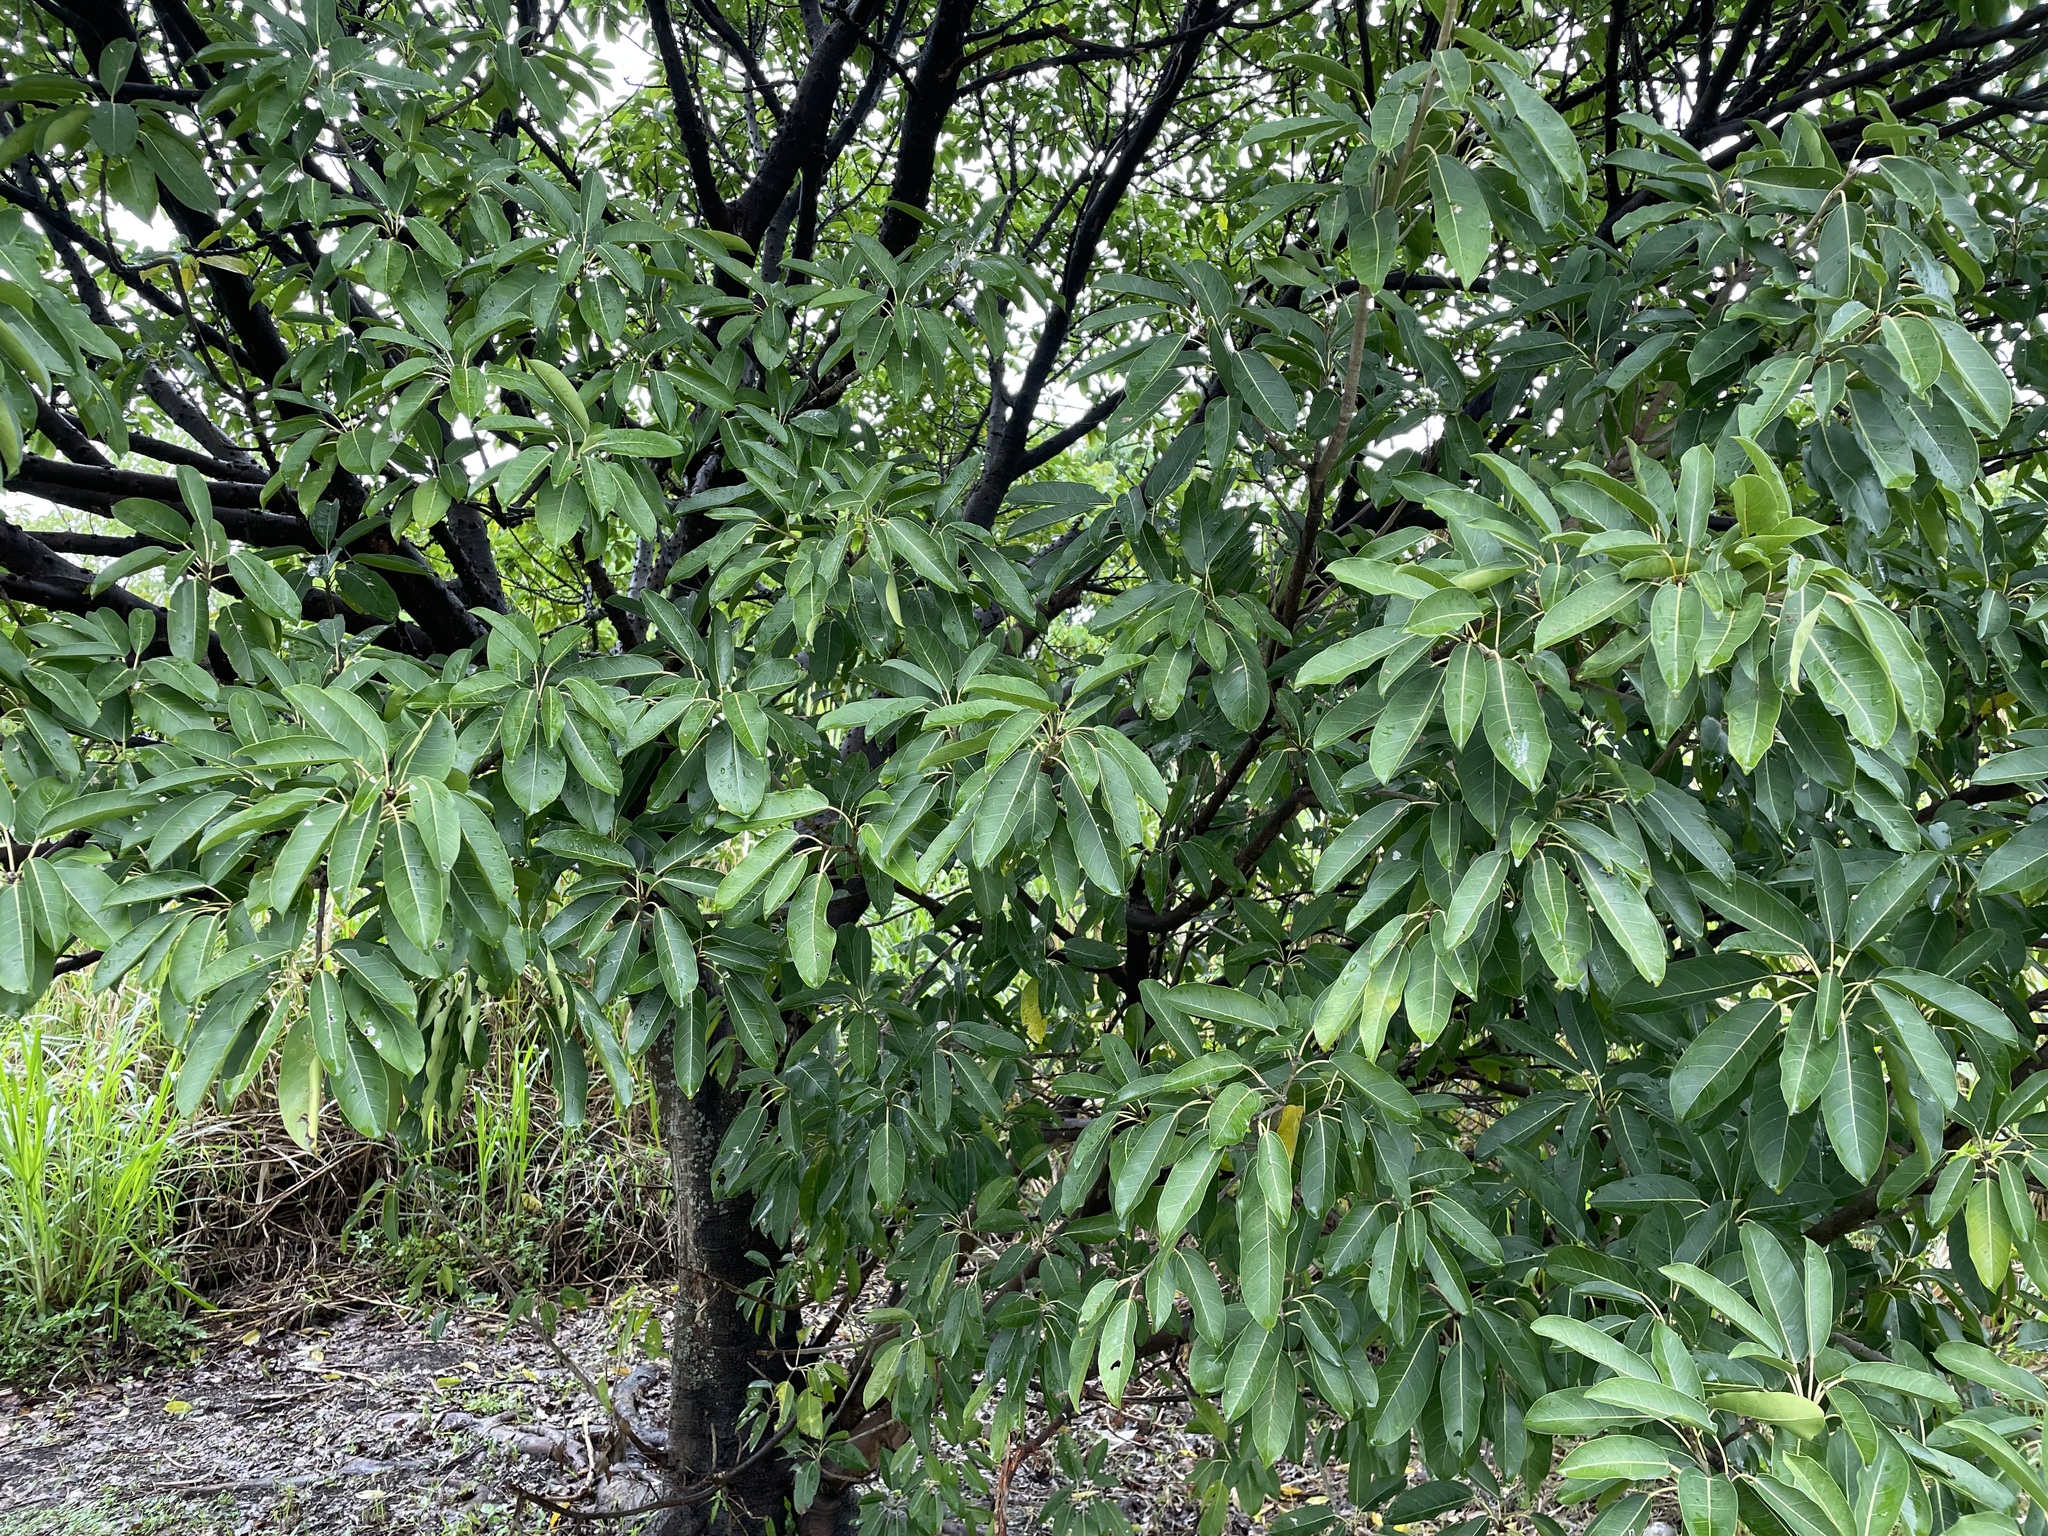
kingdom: Plantae
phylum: Tracheophyta
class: Magnoliopsida
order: Rosales
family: Moraceae
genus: Ficus
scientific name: Ficus subpisocarpa
